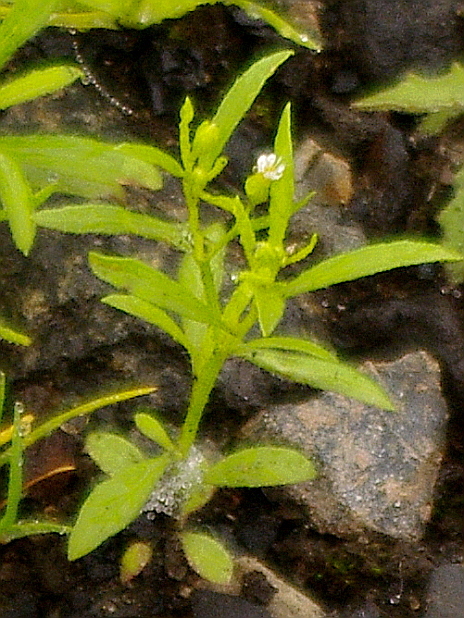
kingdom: Plantae
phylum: Tracheophyta
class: Magnoliopsida
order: Asterales
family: Asteraceae
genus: Erigeron
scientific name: Erigeron canadensis
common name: Canadian fleabane
